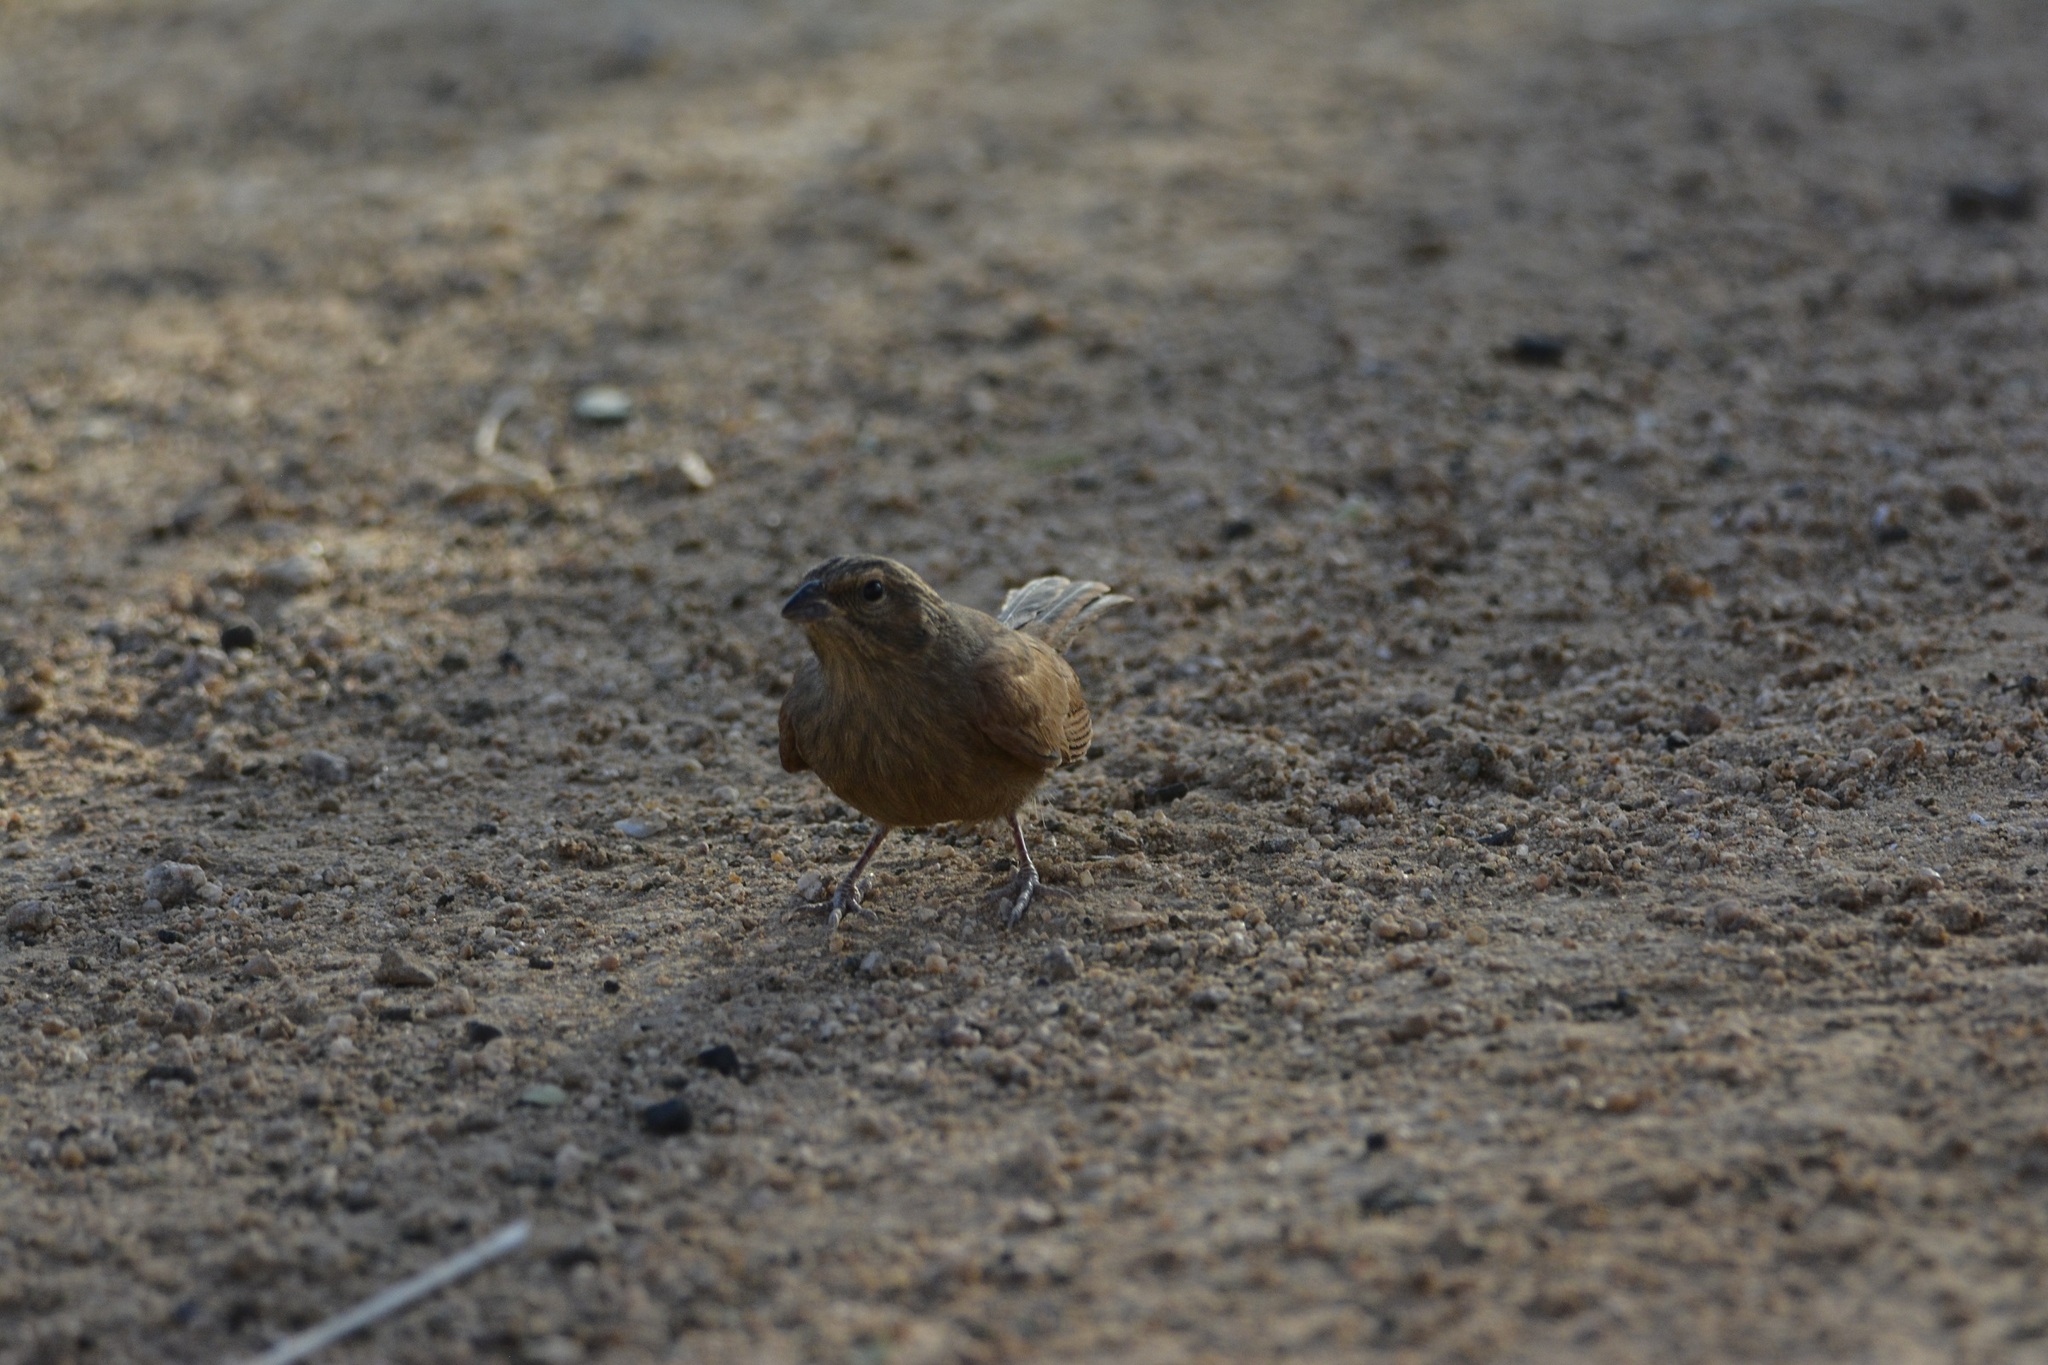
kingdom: Animalia
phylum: Chordata
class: Aves
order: Passeriformes
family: Emberizidae
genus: Emberiza
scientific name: Emberiza sahari
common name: House bunting
